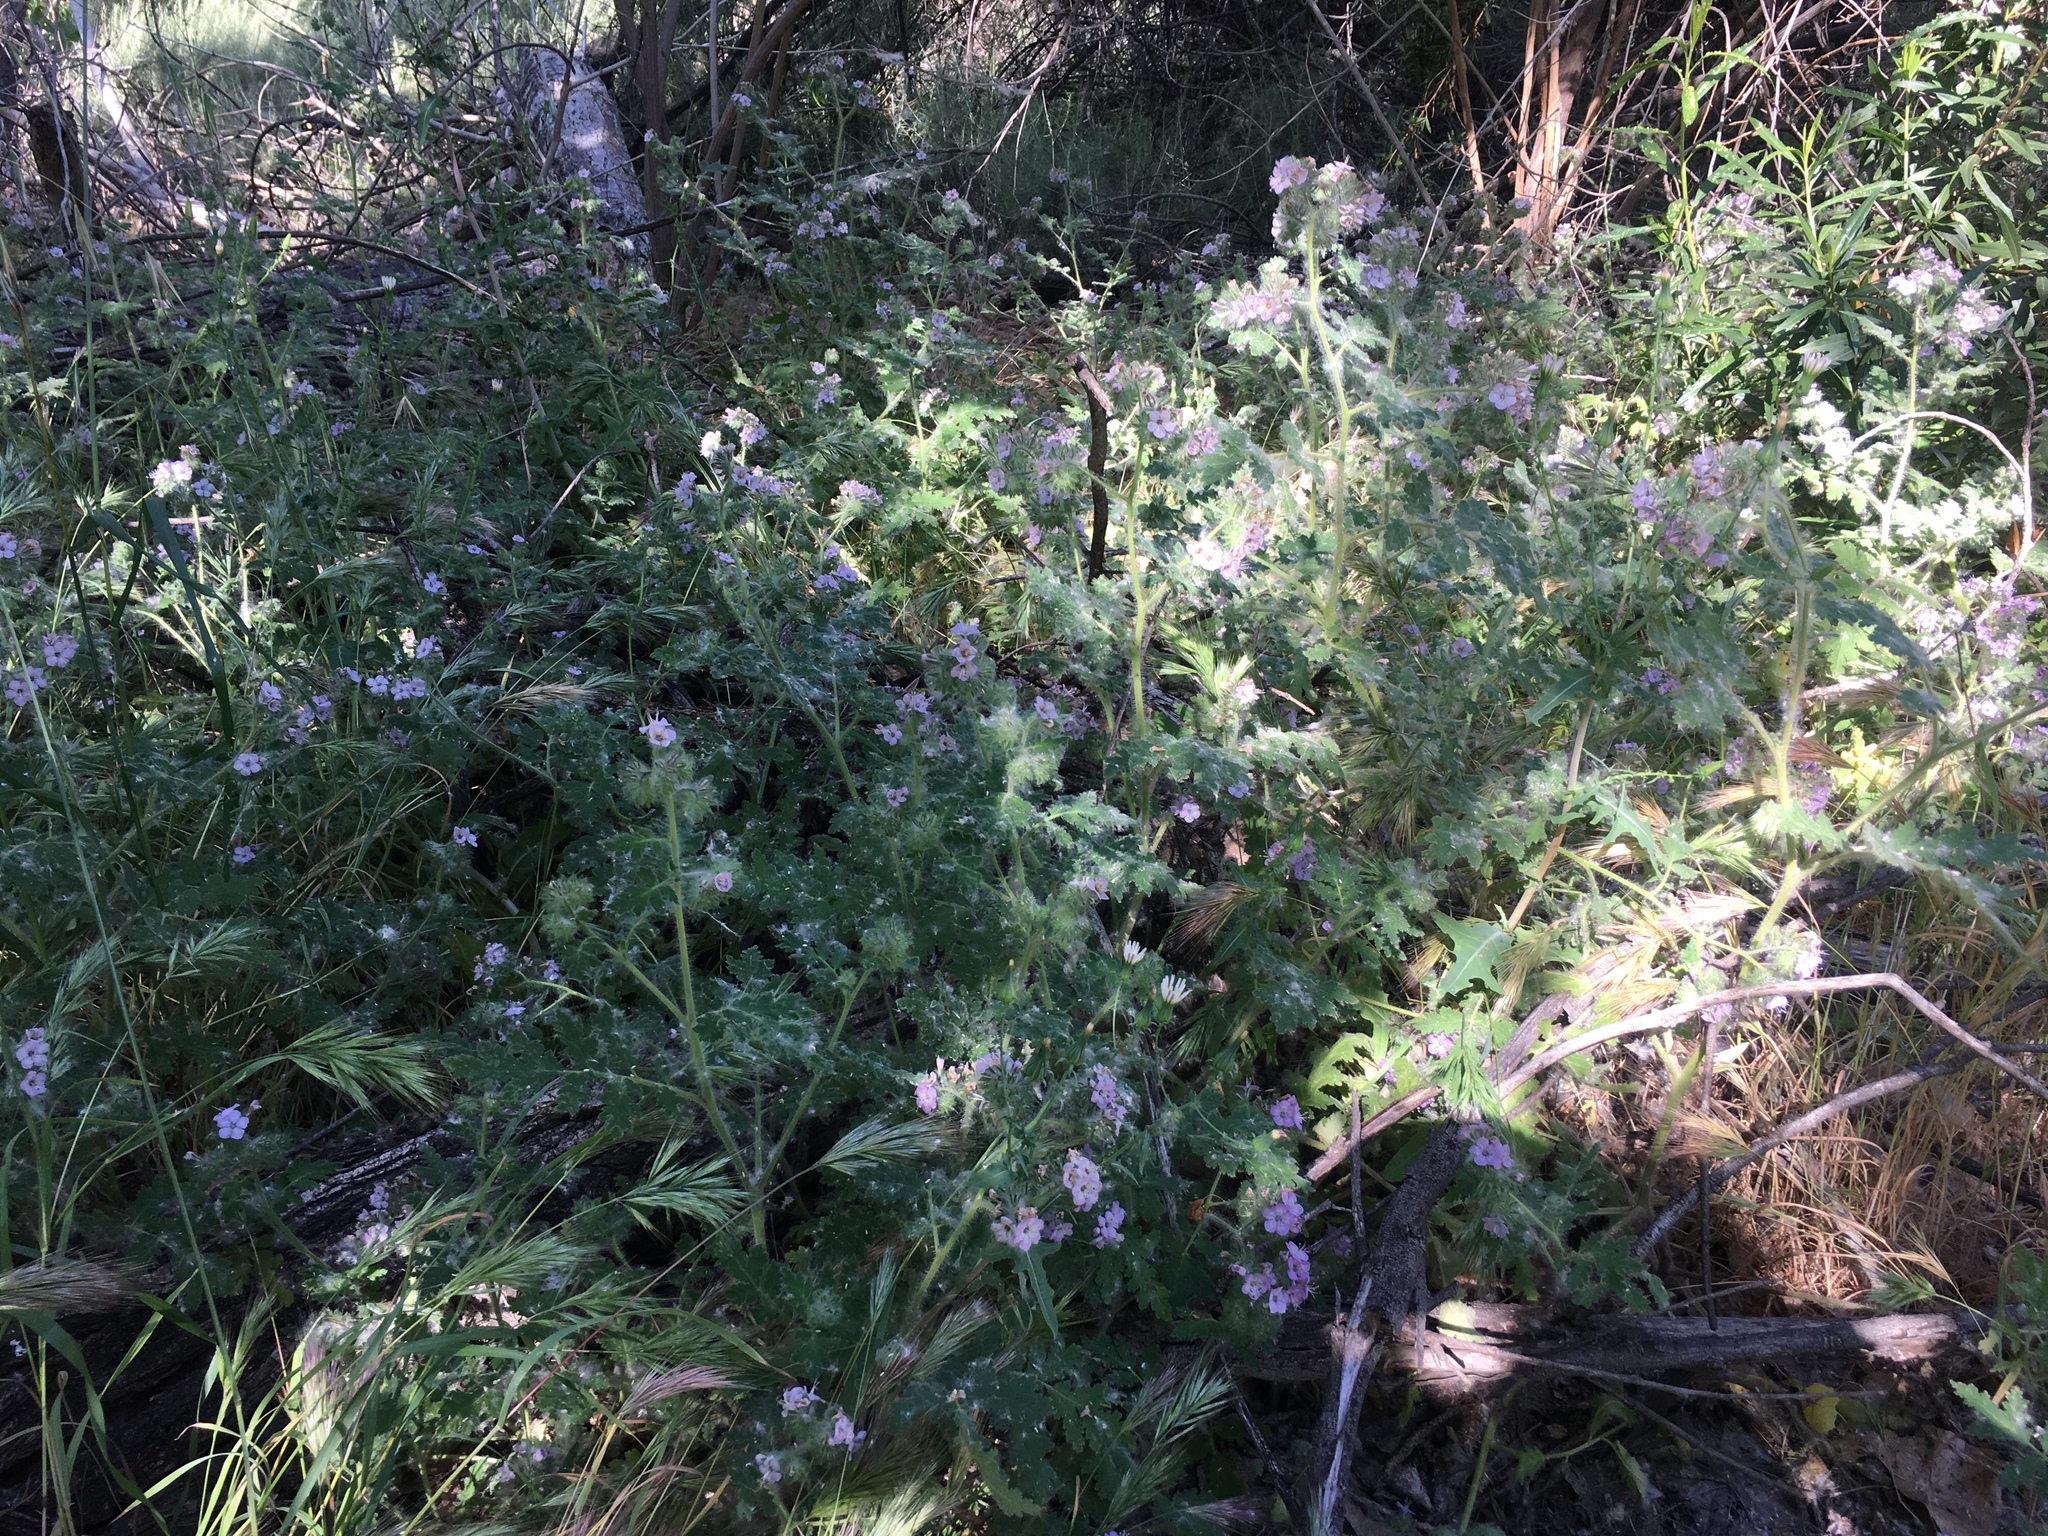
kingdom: Plantae
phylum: Tracheophyta
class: Magnoliopsida
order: Boraginales
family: Hydrophyllaceae
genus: Phacelia
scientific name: Phacelia cicutaria
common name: Caterpillar phacelia
